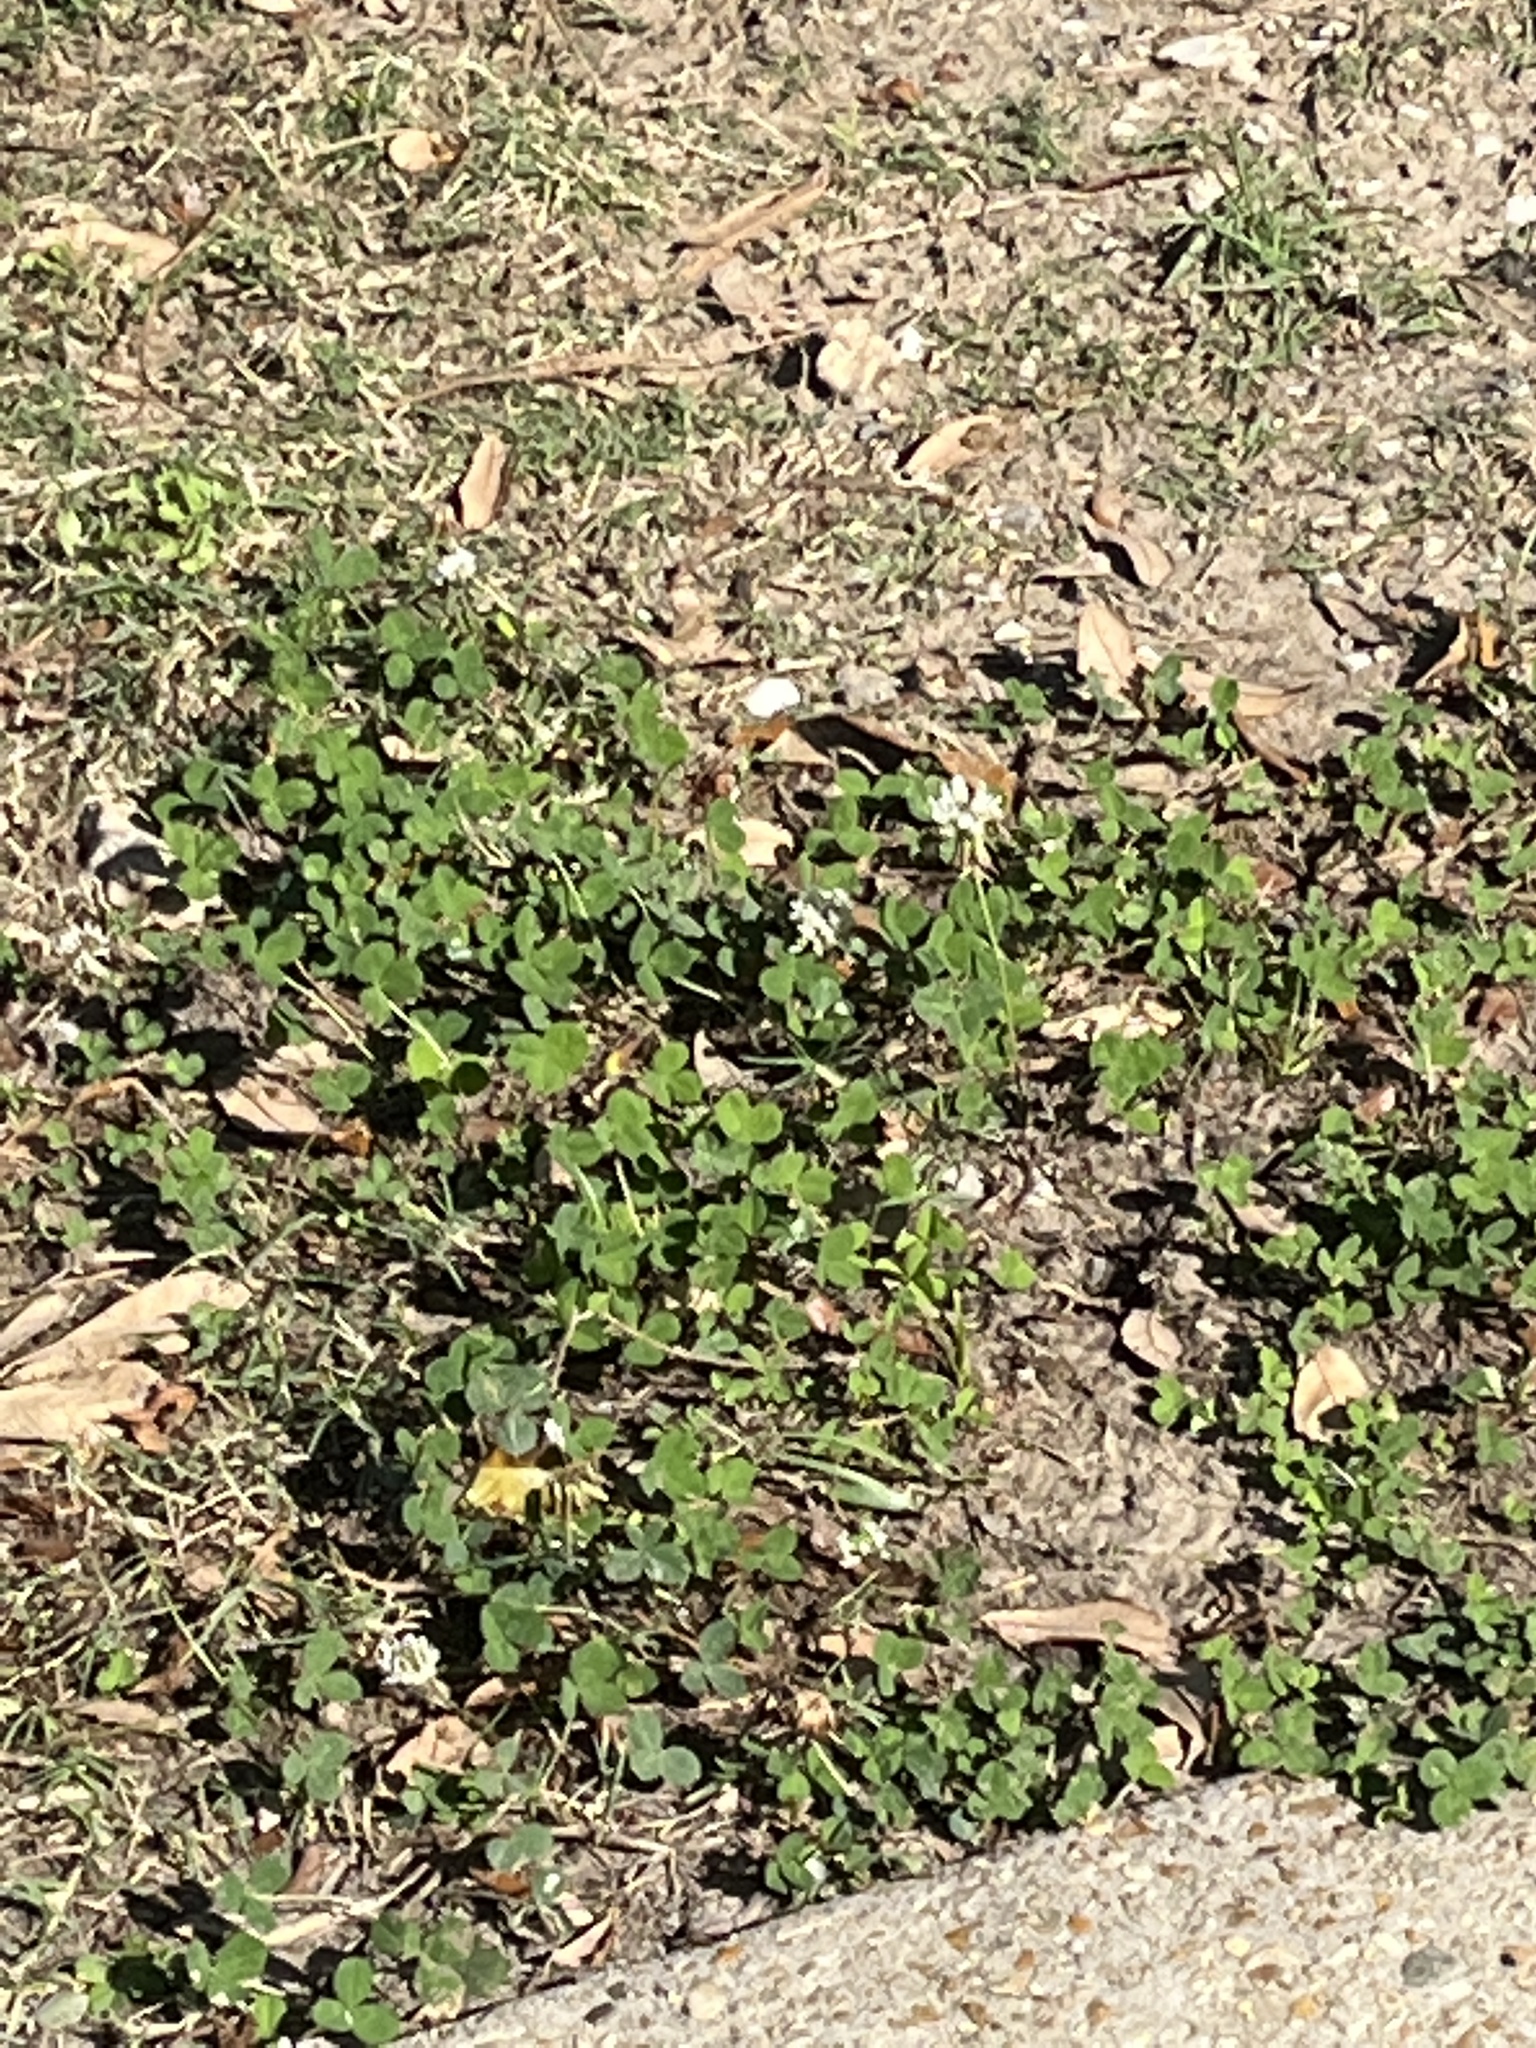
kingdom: Plantae
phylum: Tracheophyta
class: Magnoliopsida
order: Fabales
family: Fabaceae
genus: Trifolium
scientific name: Trifolium repens
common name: White clover
